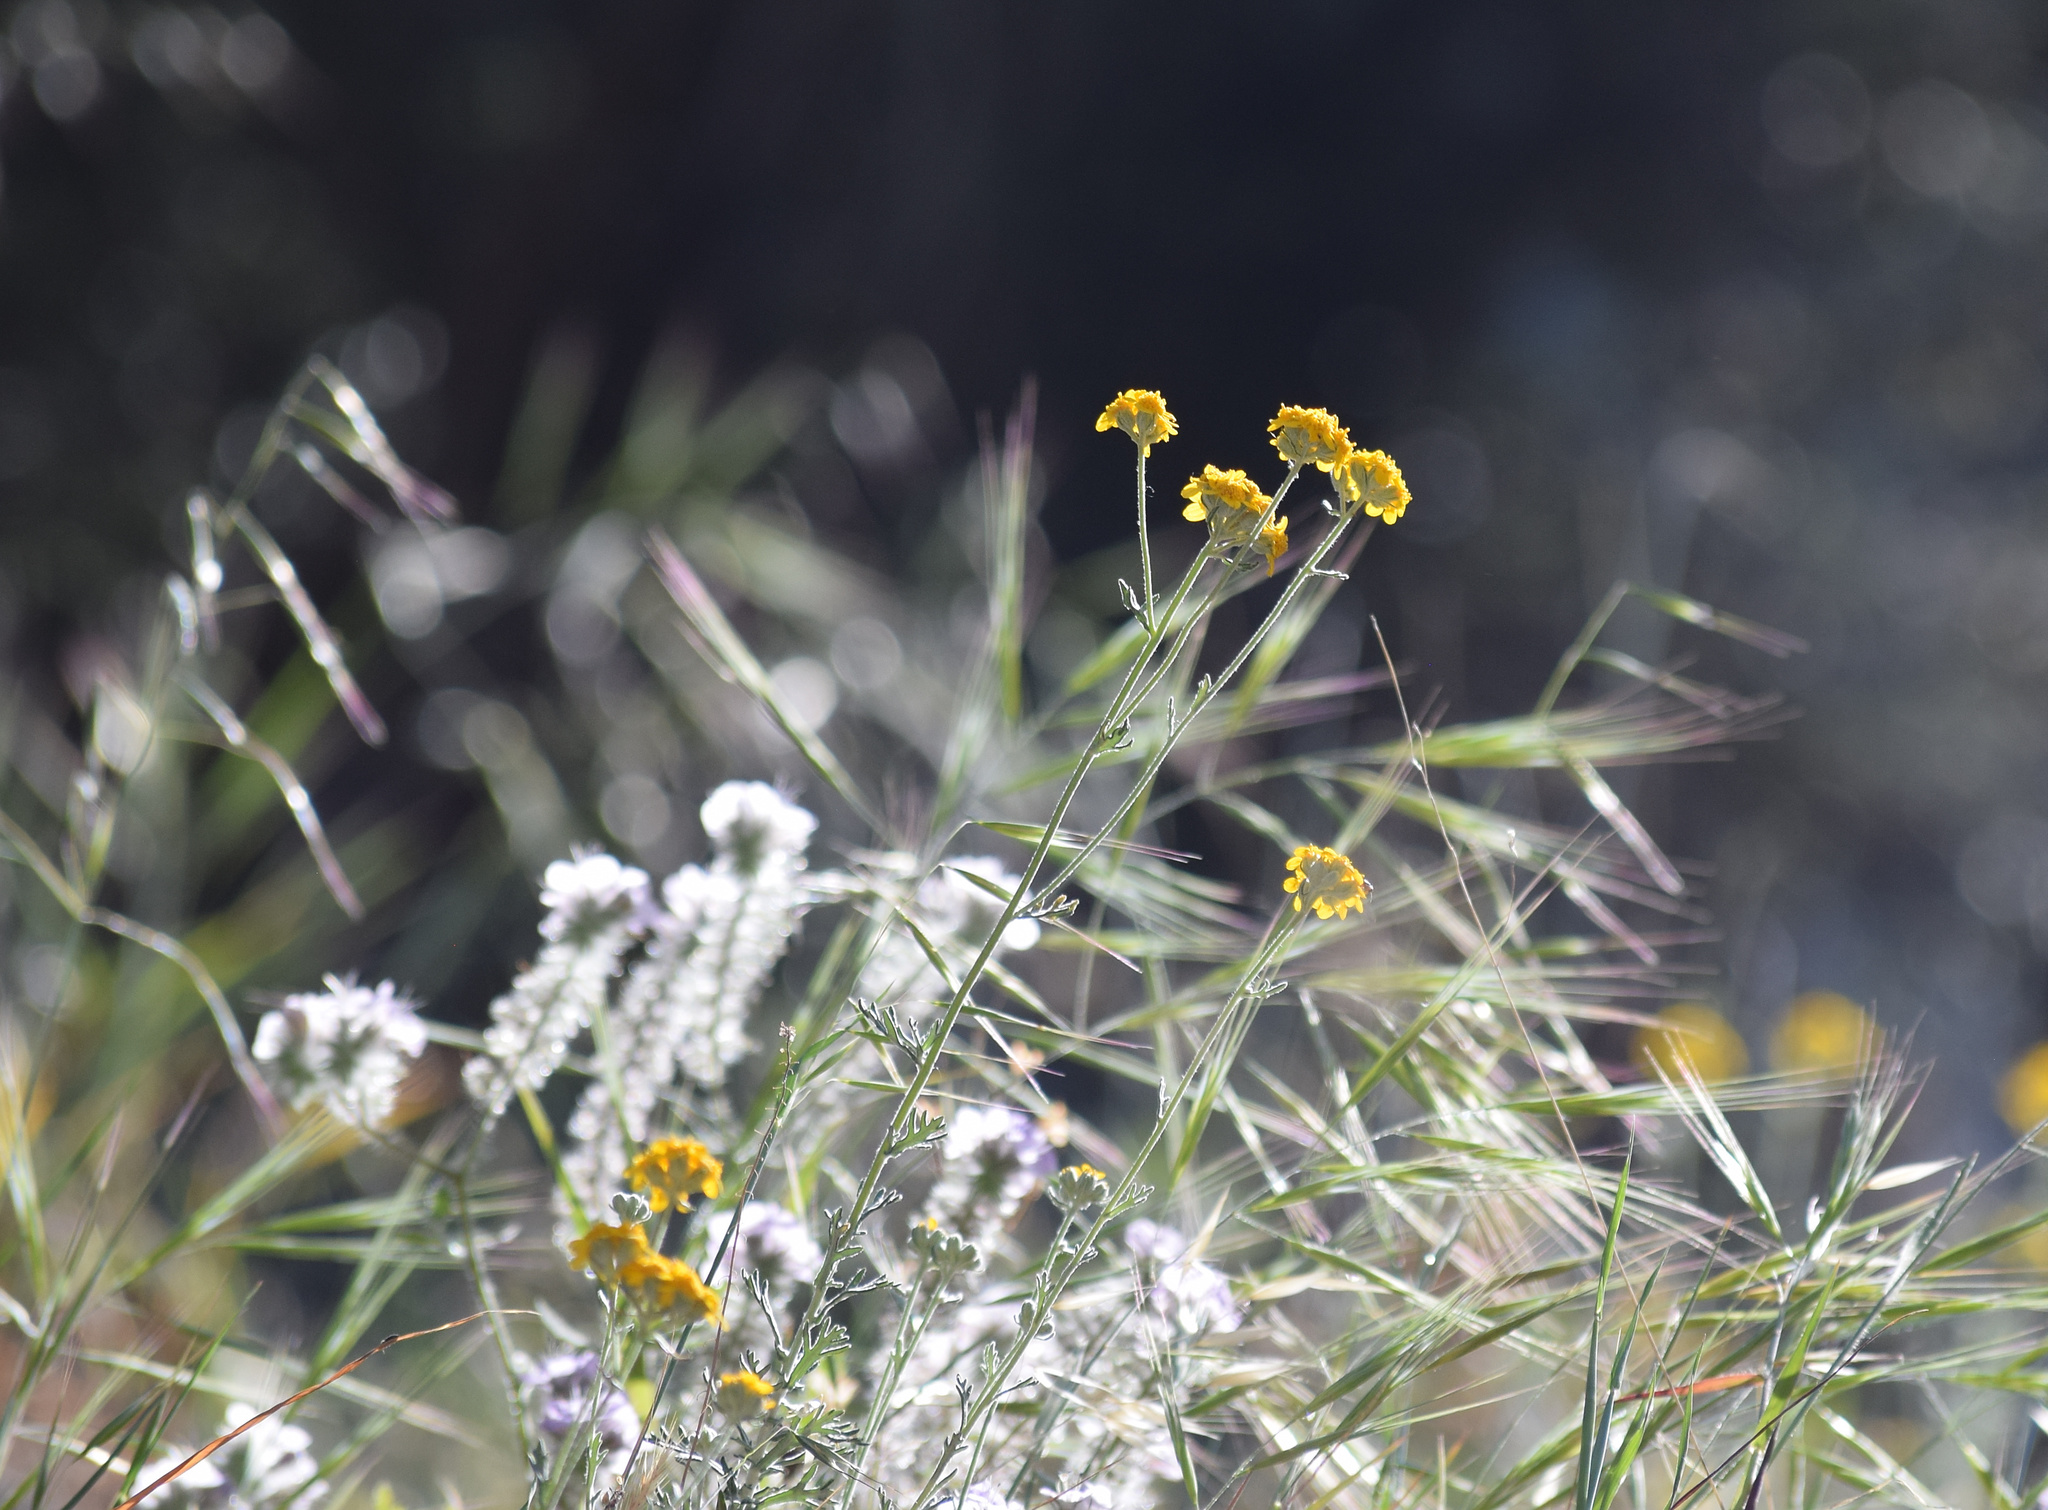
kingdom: Plantae
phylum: Tracheophyta
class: Magnoliopsida
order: Asterales
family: Asteraceae
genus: Eriophyllum
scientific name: Eriophyllum confertiflorum
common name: Golden-yarrow
